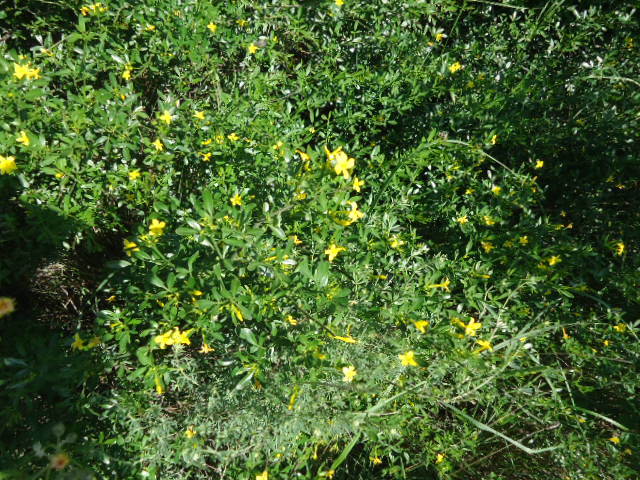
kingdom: Plantae
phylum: Tracheophyta
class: Magnoliopsida
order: Lamiales
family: Oleaceae
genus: Chrysojasminum
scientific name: Chrysojasminum fruticans
